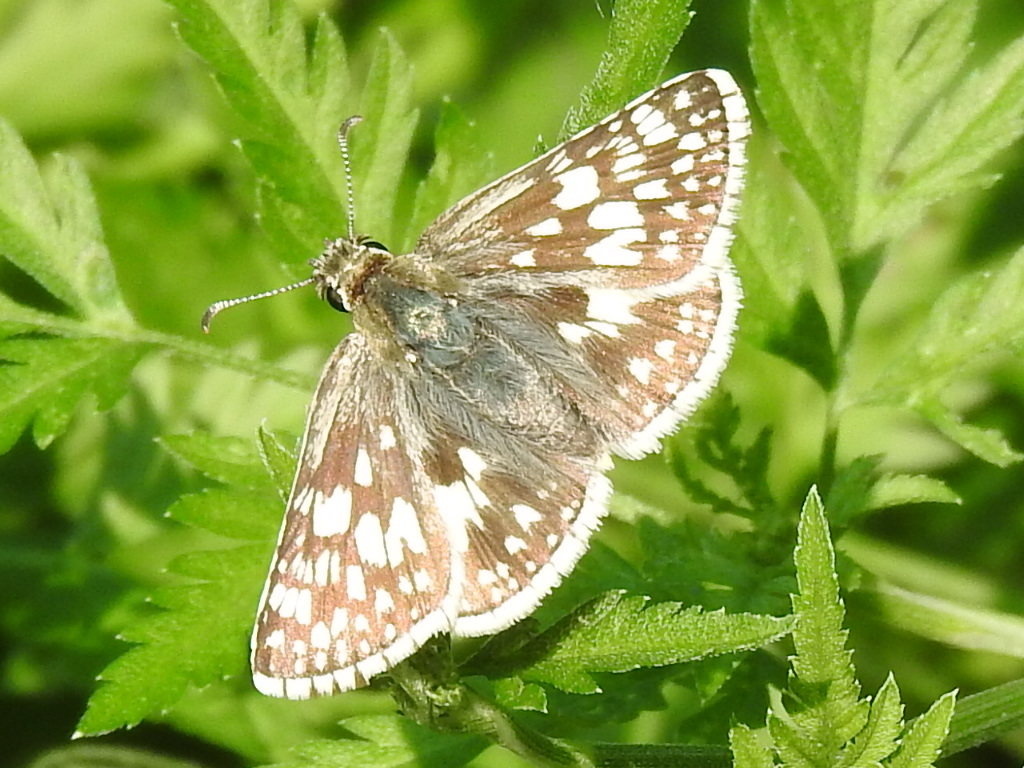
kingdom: Animalia
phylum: Arthropoda
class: Insecta
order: Lepidoptera
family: Hesperiidae
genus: Burnsius
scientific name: Burnsius
